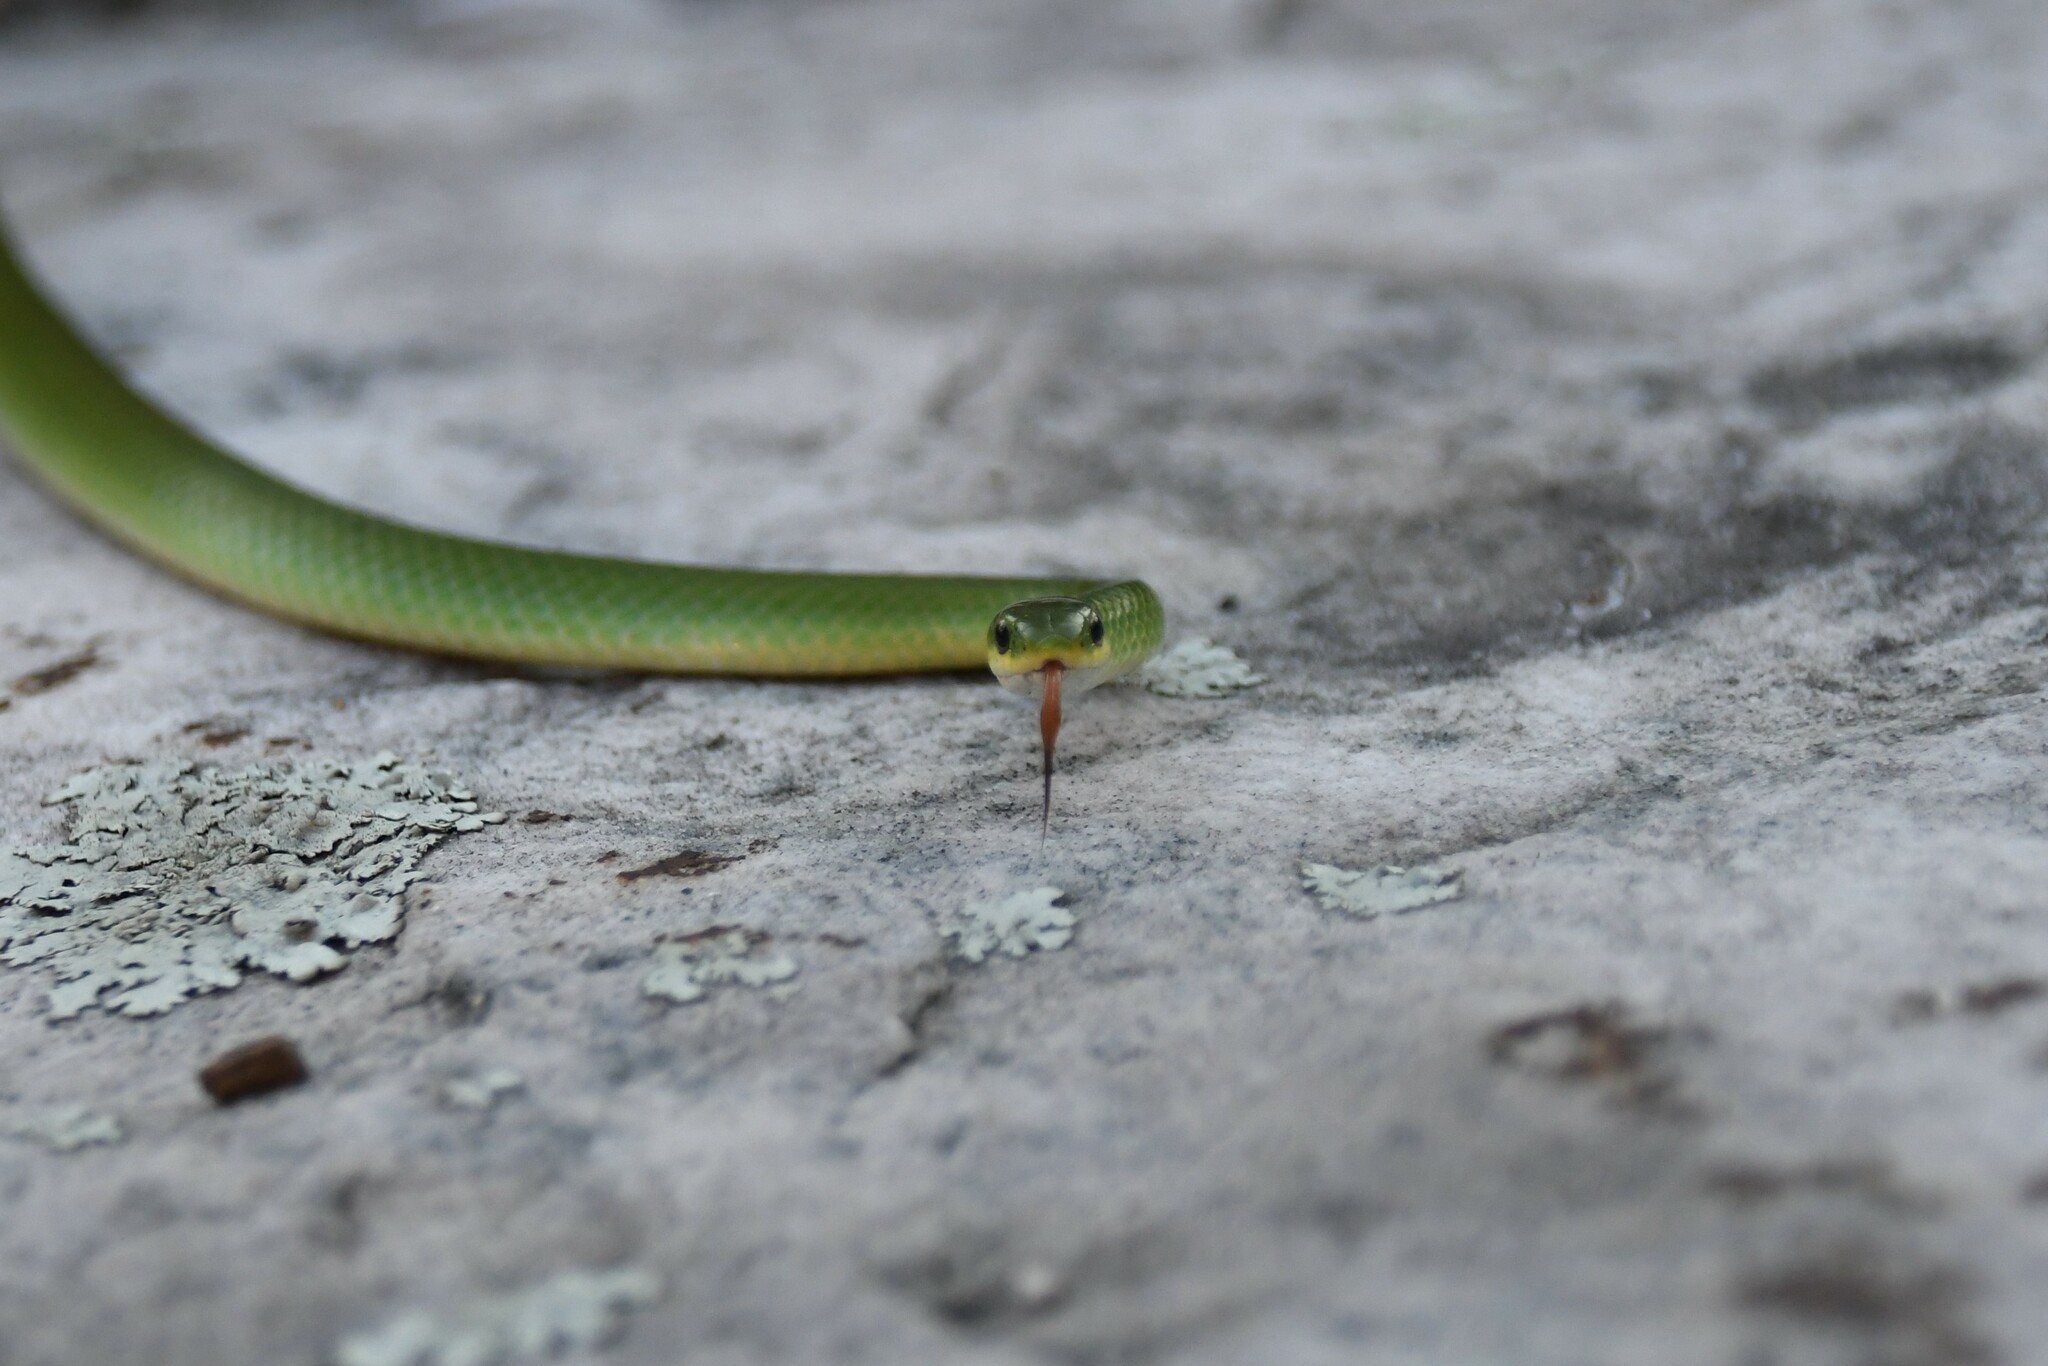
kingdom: Animalia
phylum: Chordata
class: Squamata
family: Colubridae
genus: Opheodrys
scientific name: Opheodrys vernalis
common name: Smooth green snake
